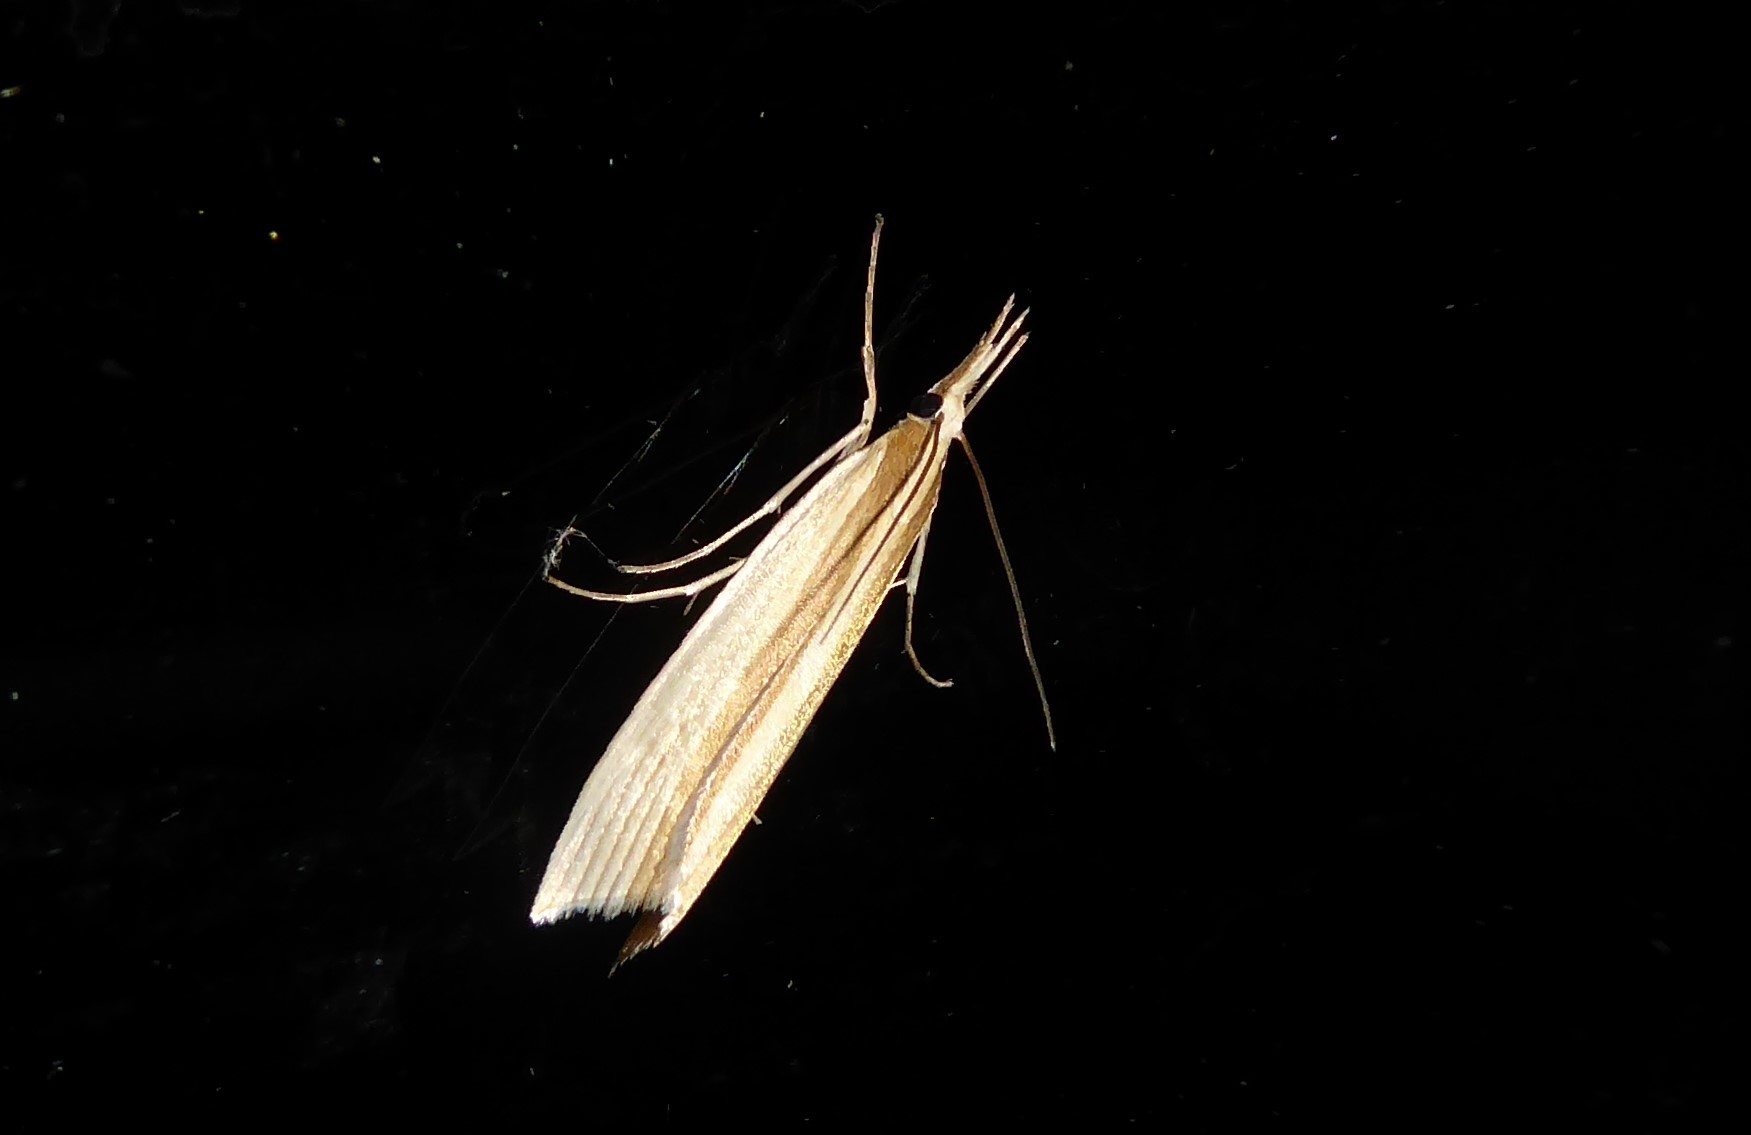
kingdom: Animalia
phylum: Arthropoda
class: Insecta
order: Lepidoptera
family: Crambidae
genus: Orocrambus
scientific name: Orocrambus angustipennis
